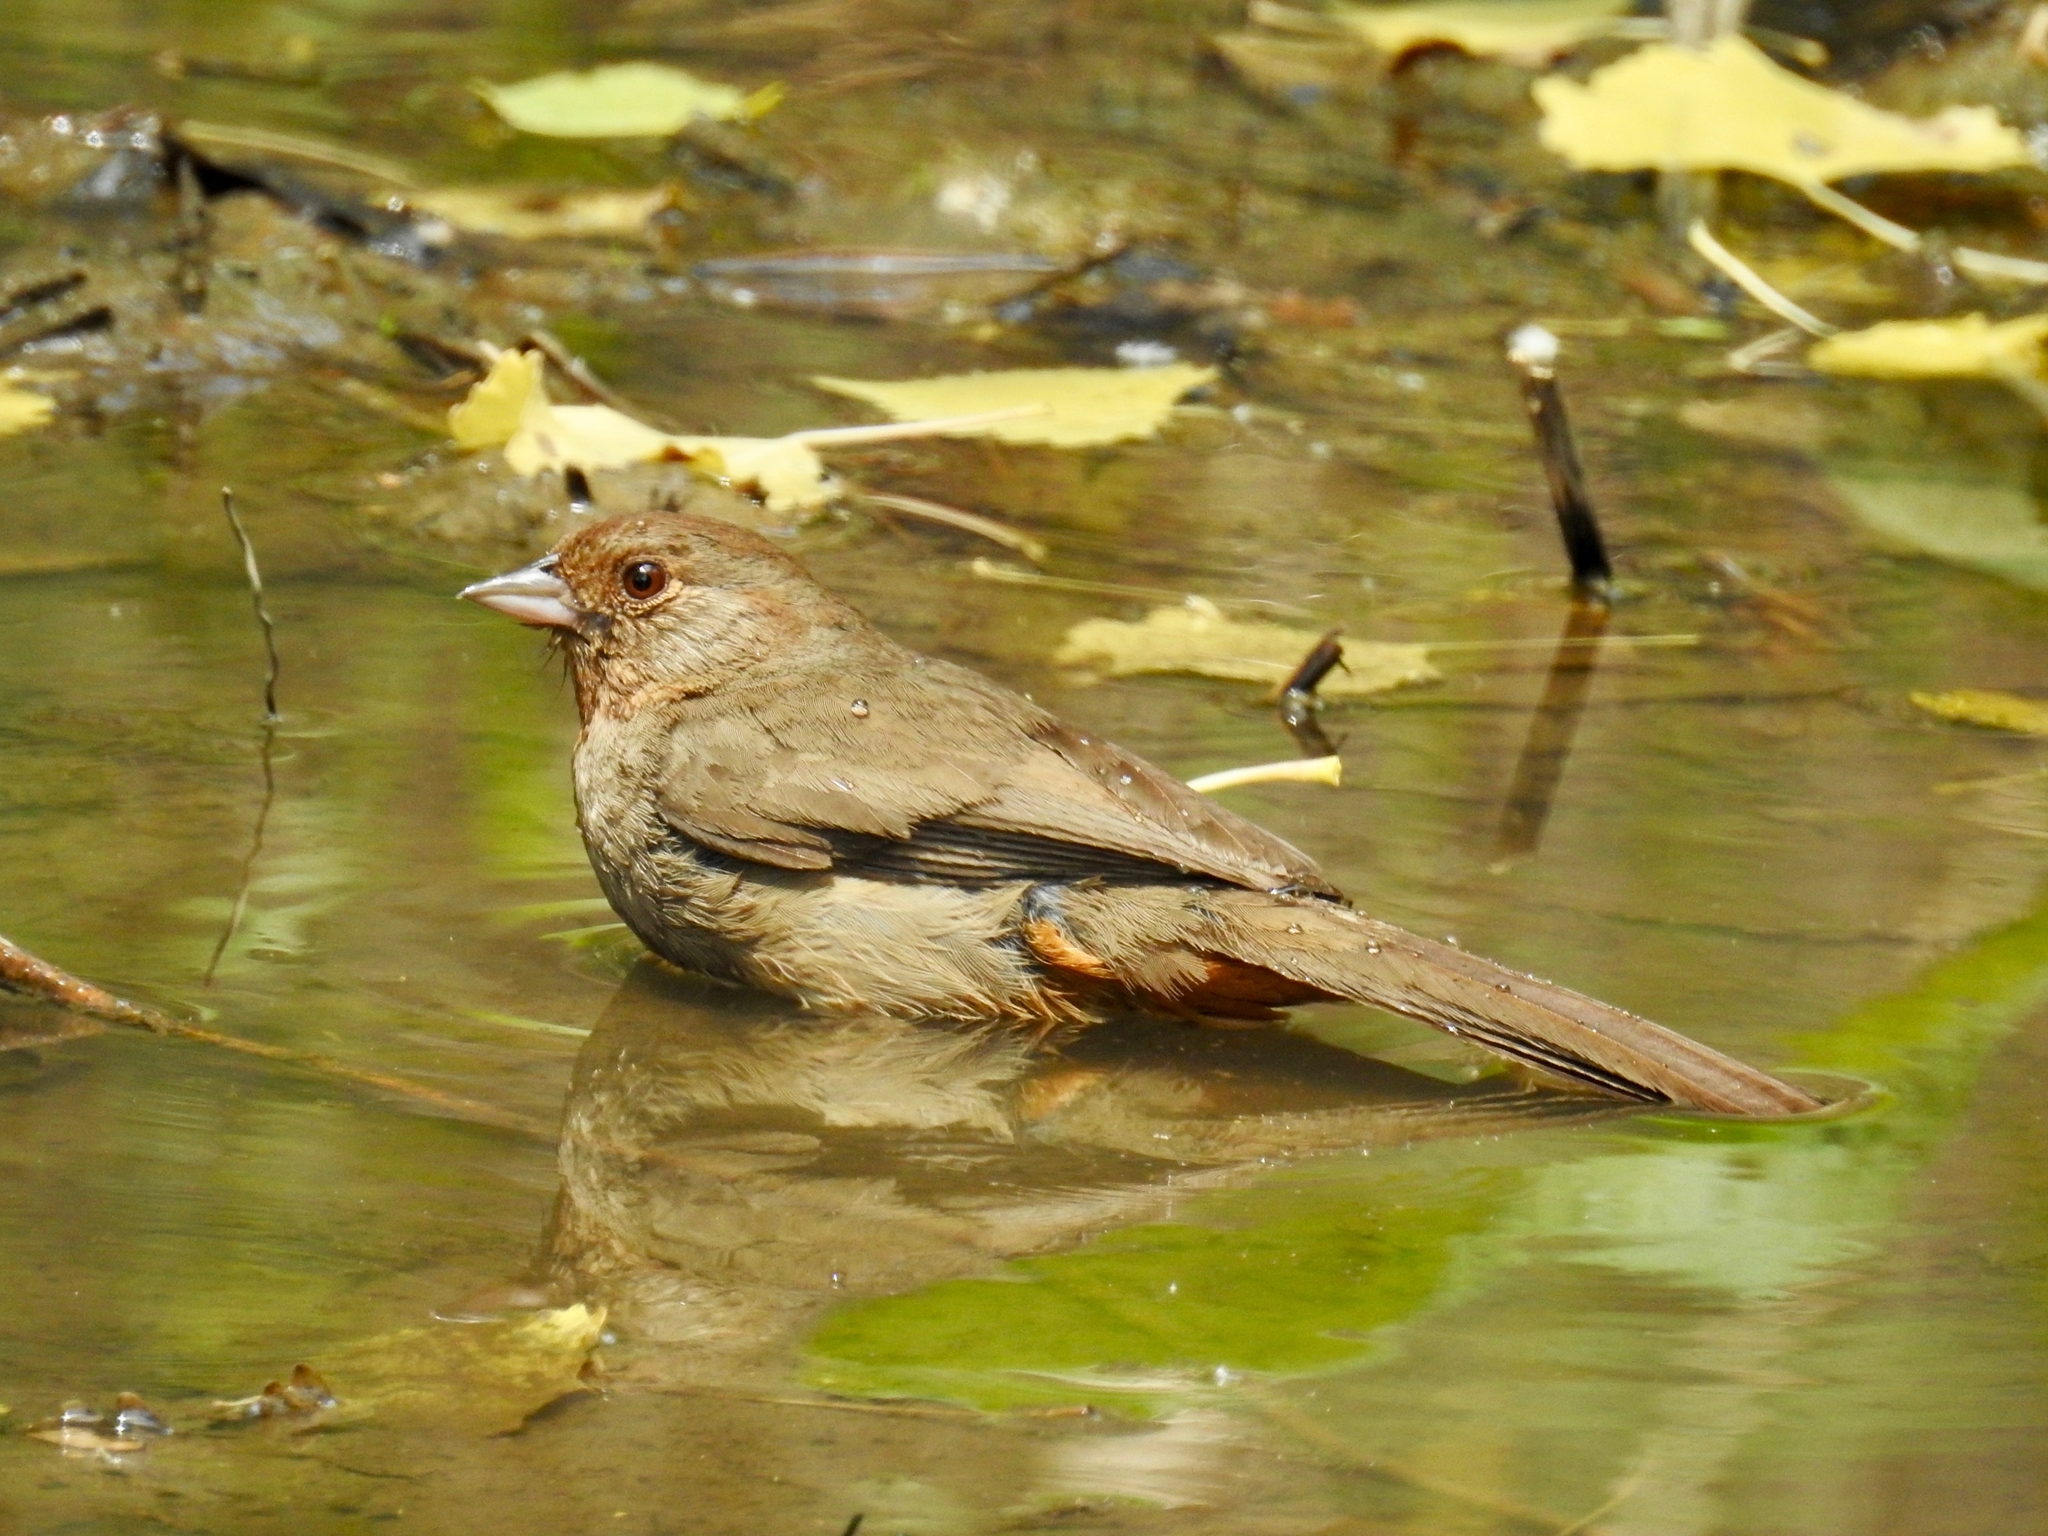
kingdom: Animalia
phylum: Chordata
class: Aves
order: Passeriformes
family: Passerellidae
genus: Melozone
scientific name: Melozone crissalis
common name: California towhee
